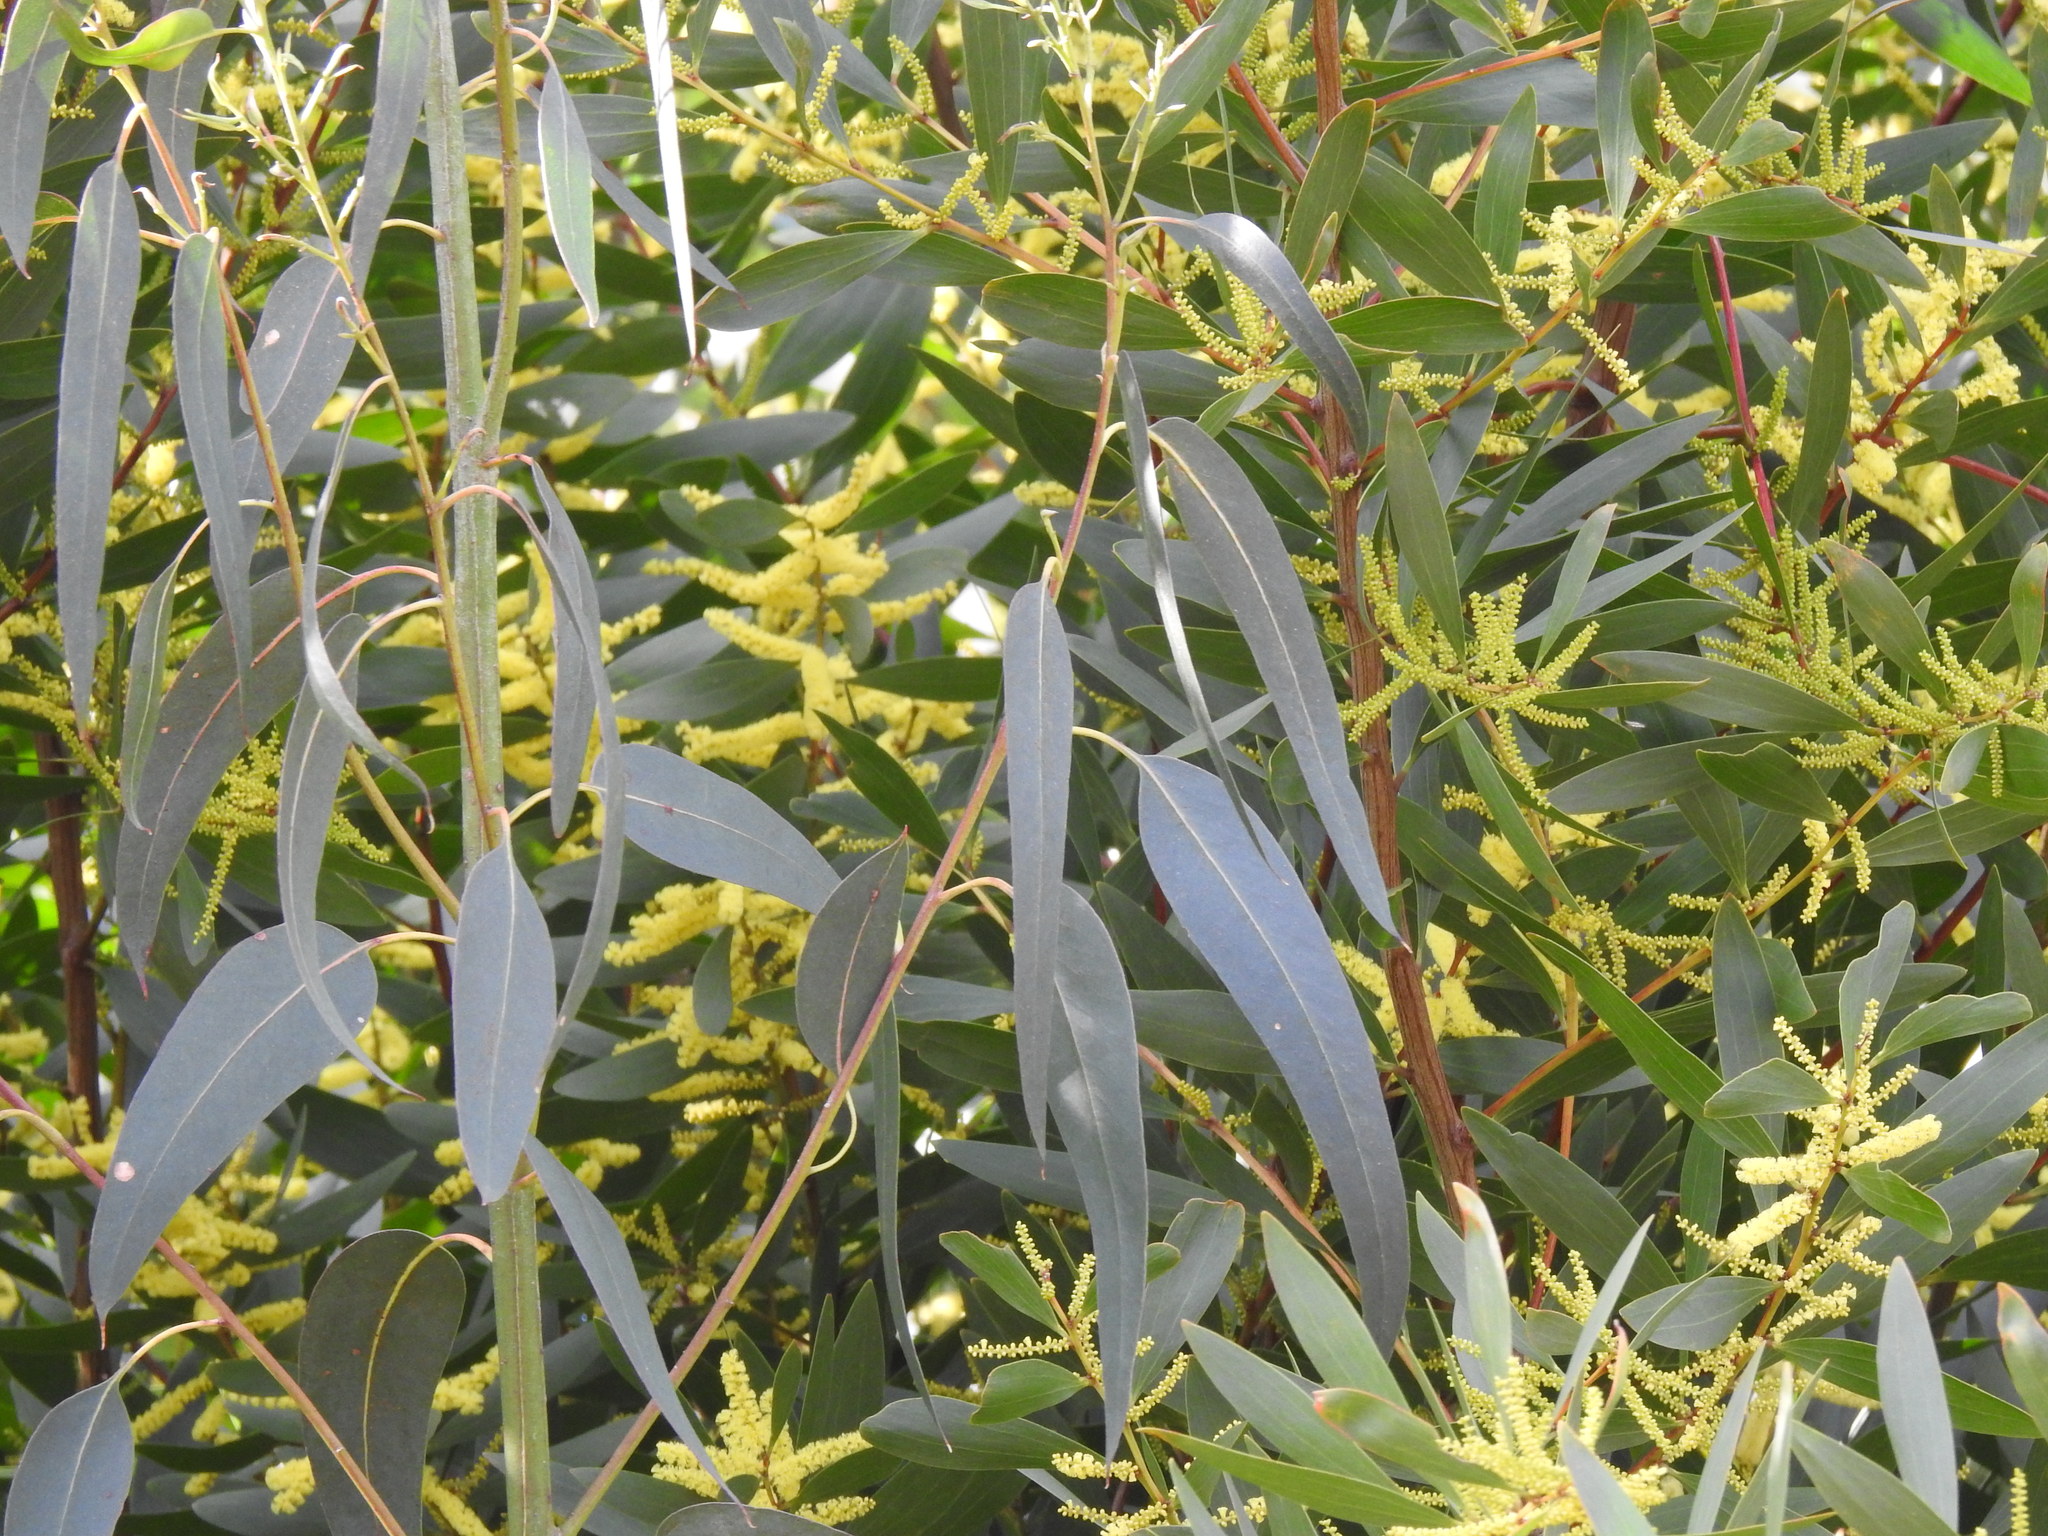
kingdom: Plantae
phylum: Tracheophyta
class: Magnoliopsida
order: Myrtales
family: Myrtaceae
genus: Eucalyptus
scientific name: Eucalyptus globulus
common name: Southern blue-gum
